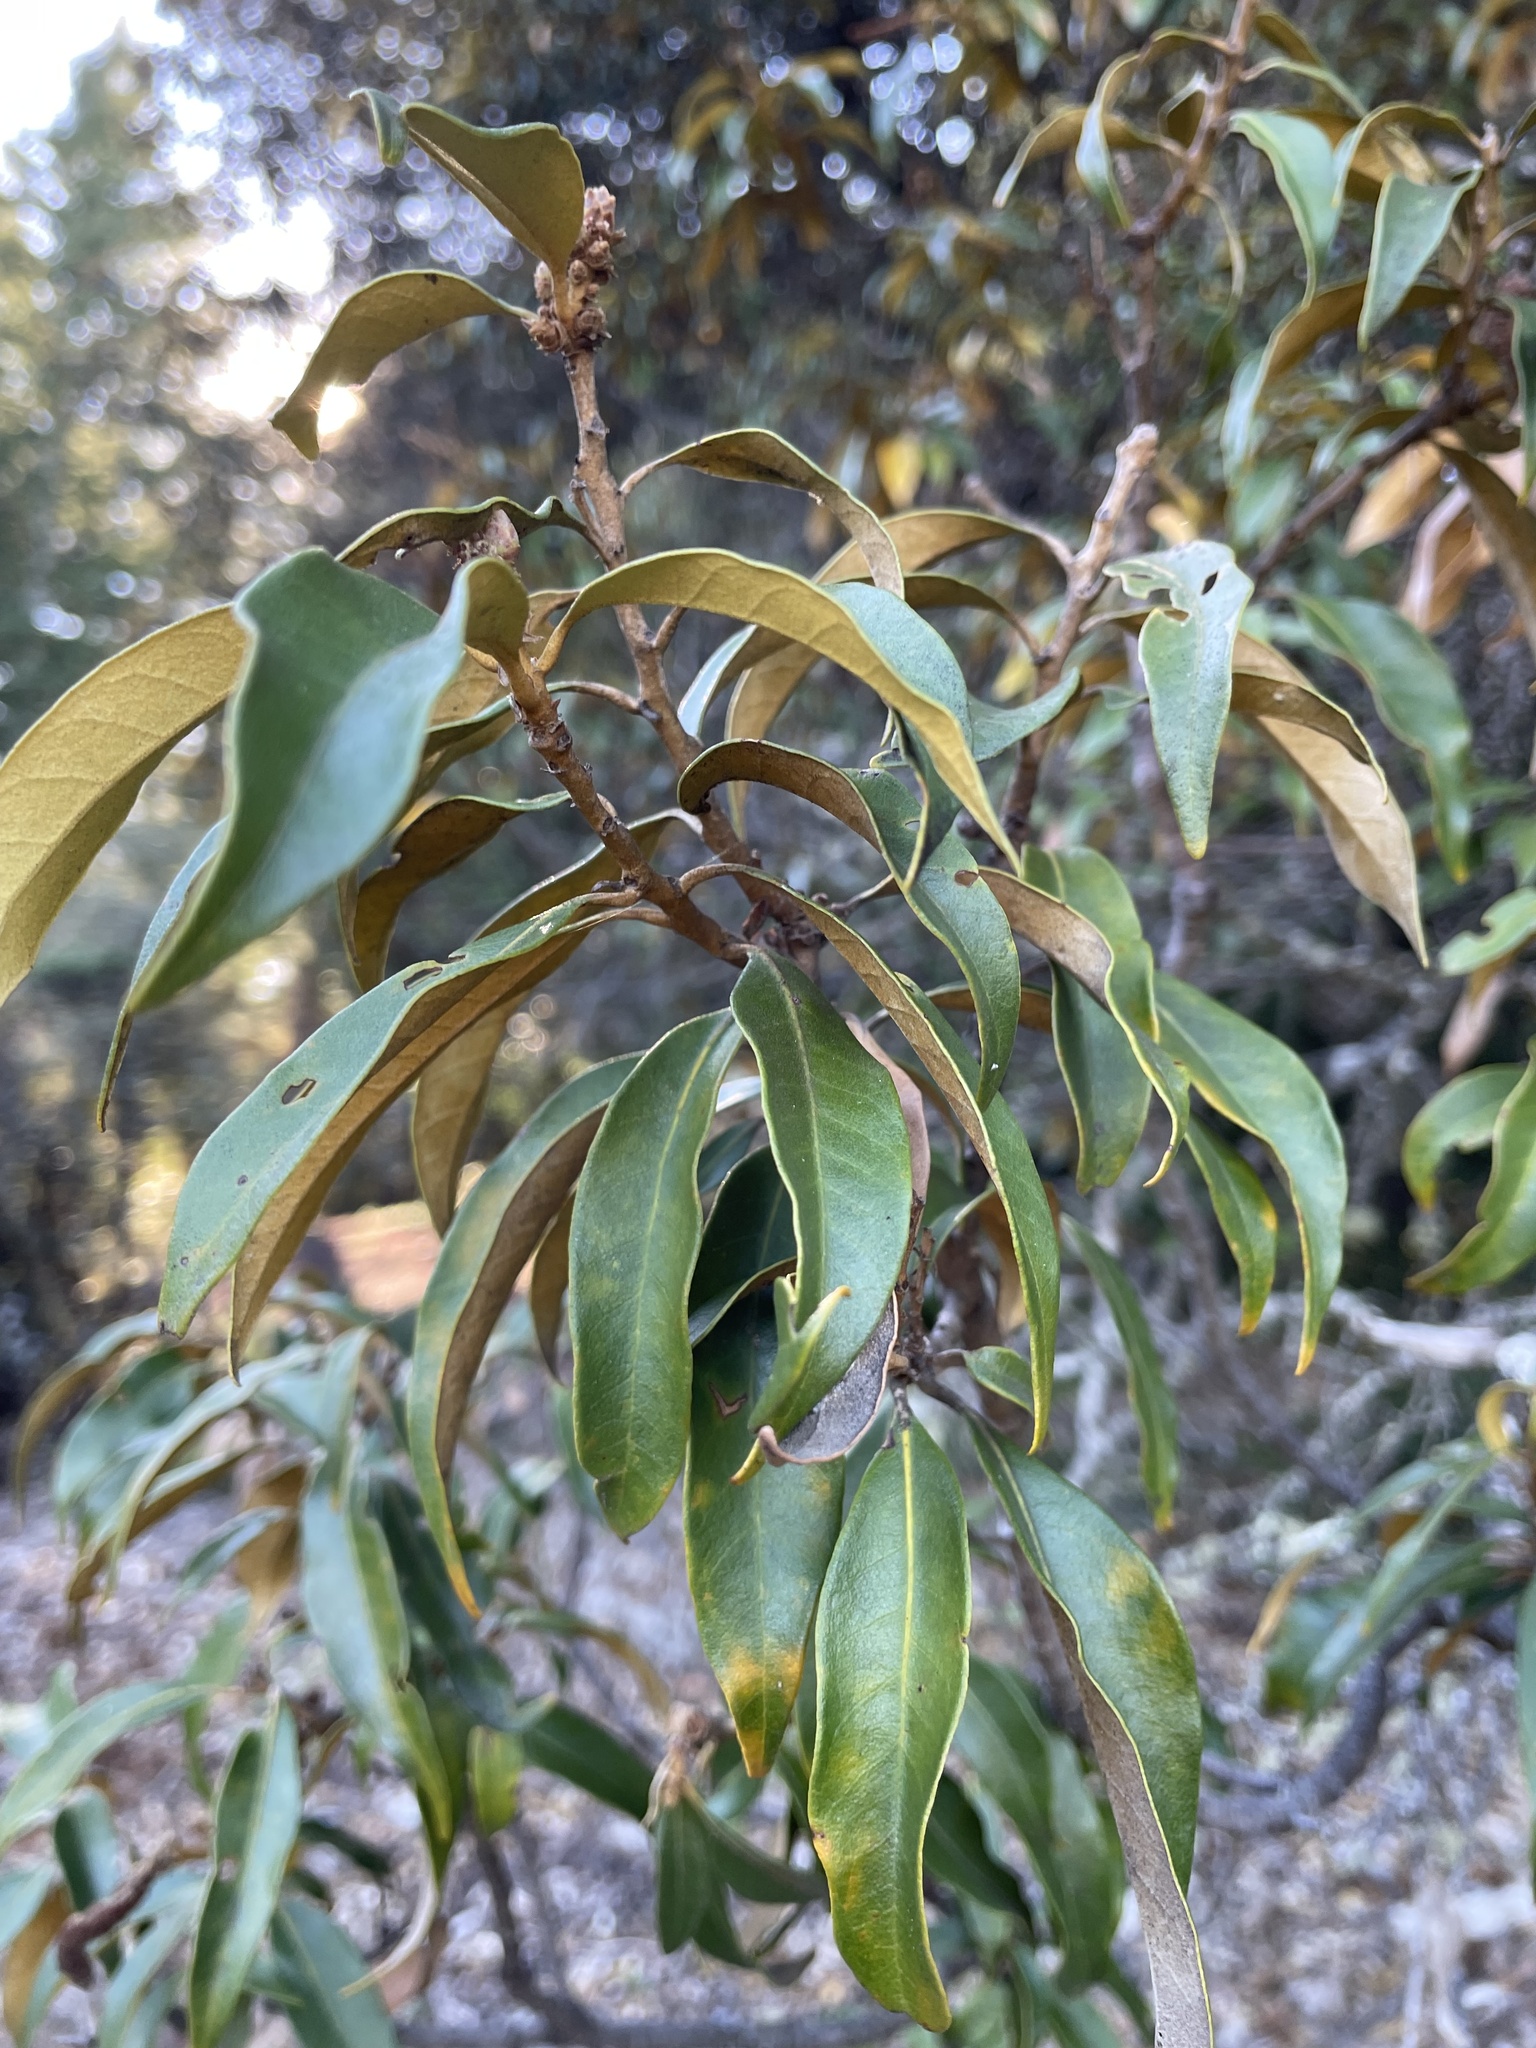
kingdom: Plantae
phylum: Tracheophyta
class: Magnoliopsida
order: Fagales
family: Fagaceae
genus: Chrysolepis
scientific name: Chrysolepis chrysophylla
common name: Giant chinquapin
